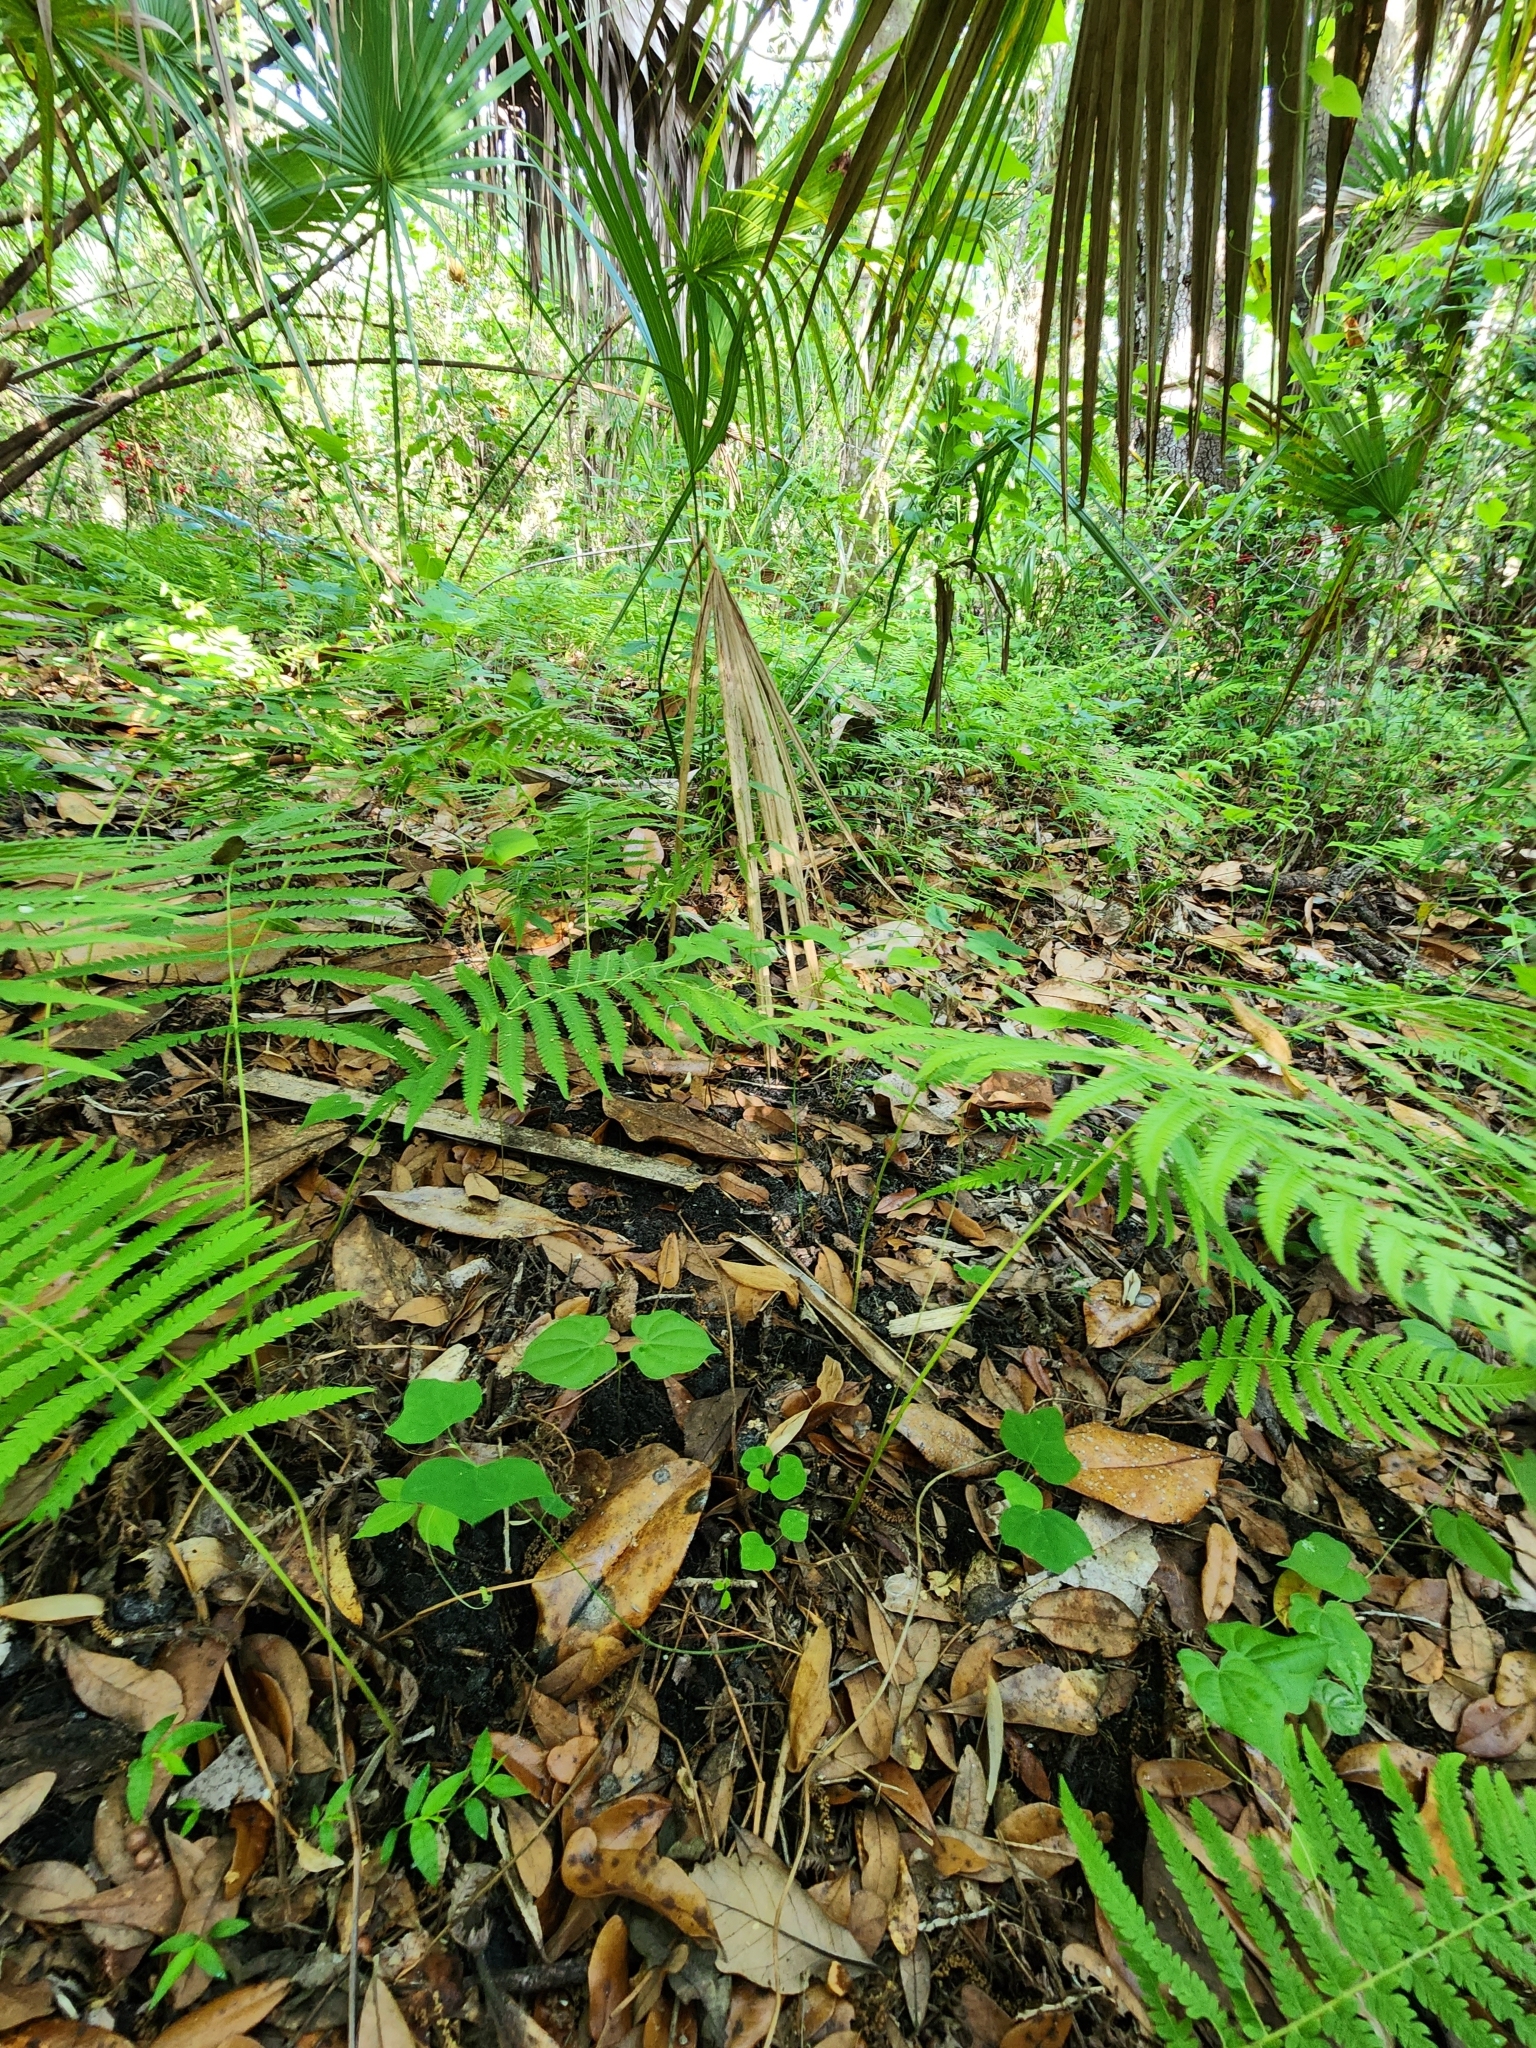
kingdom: Plantae
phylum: Tracheophyta
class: Magnoliopsida
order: Malpighiales
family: Passifloraceae
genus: Passiflora
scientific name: Passiflora lutea
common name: Yellow passionflower
